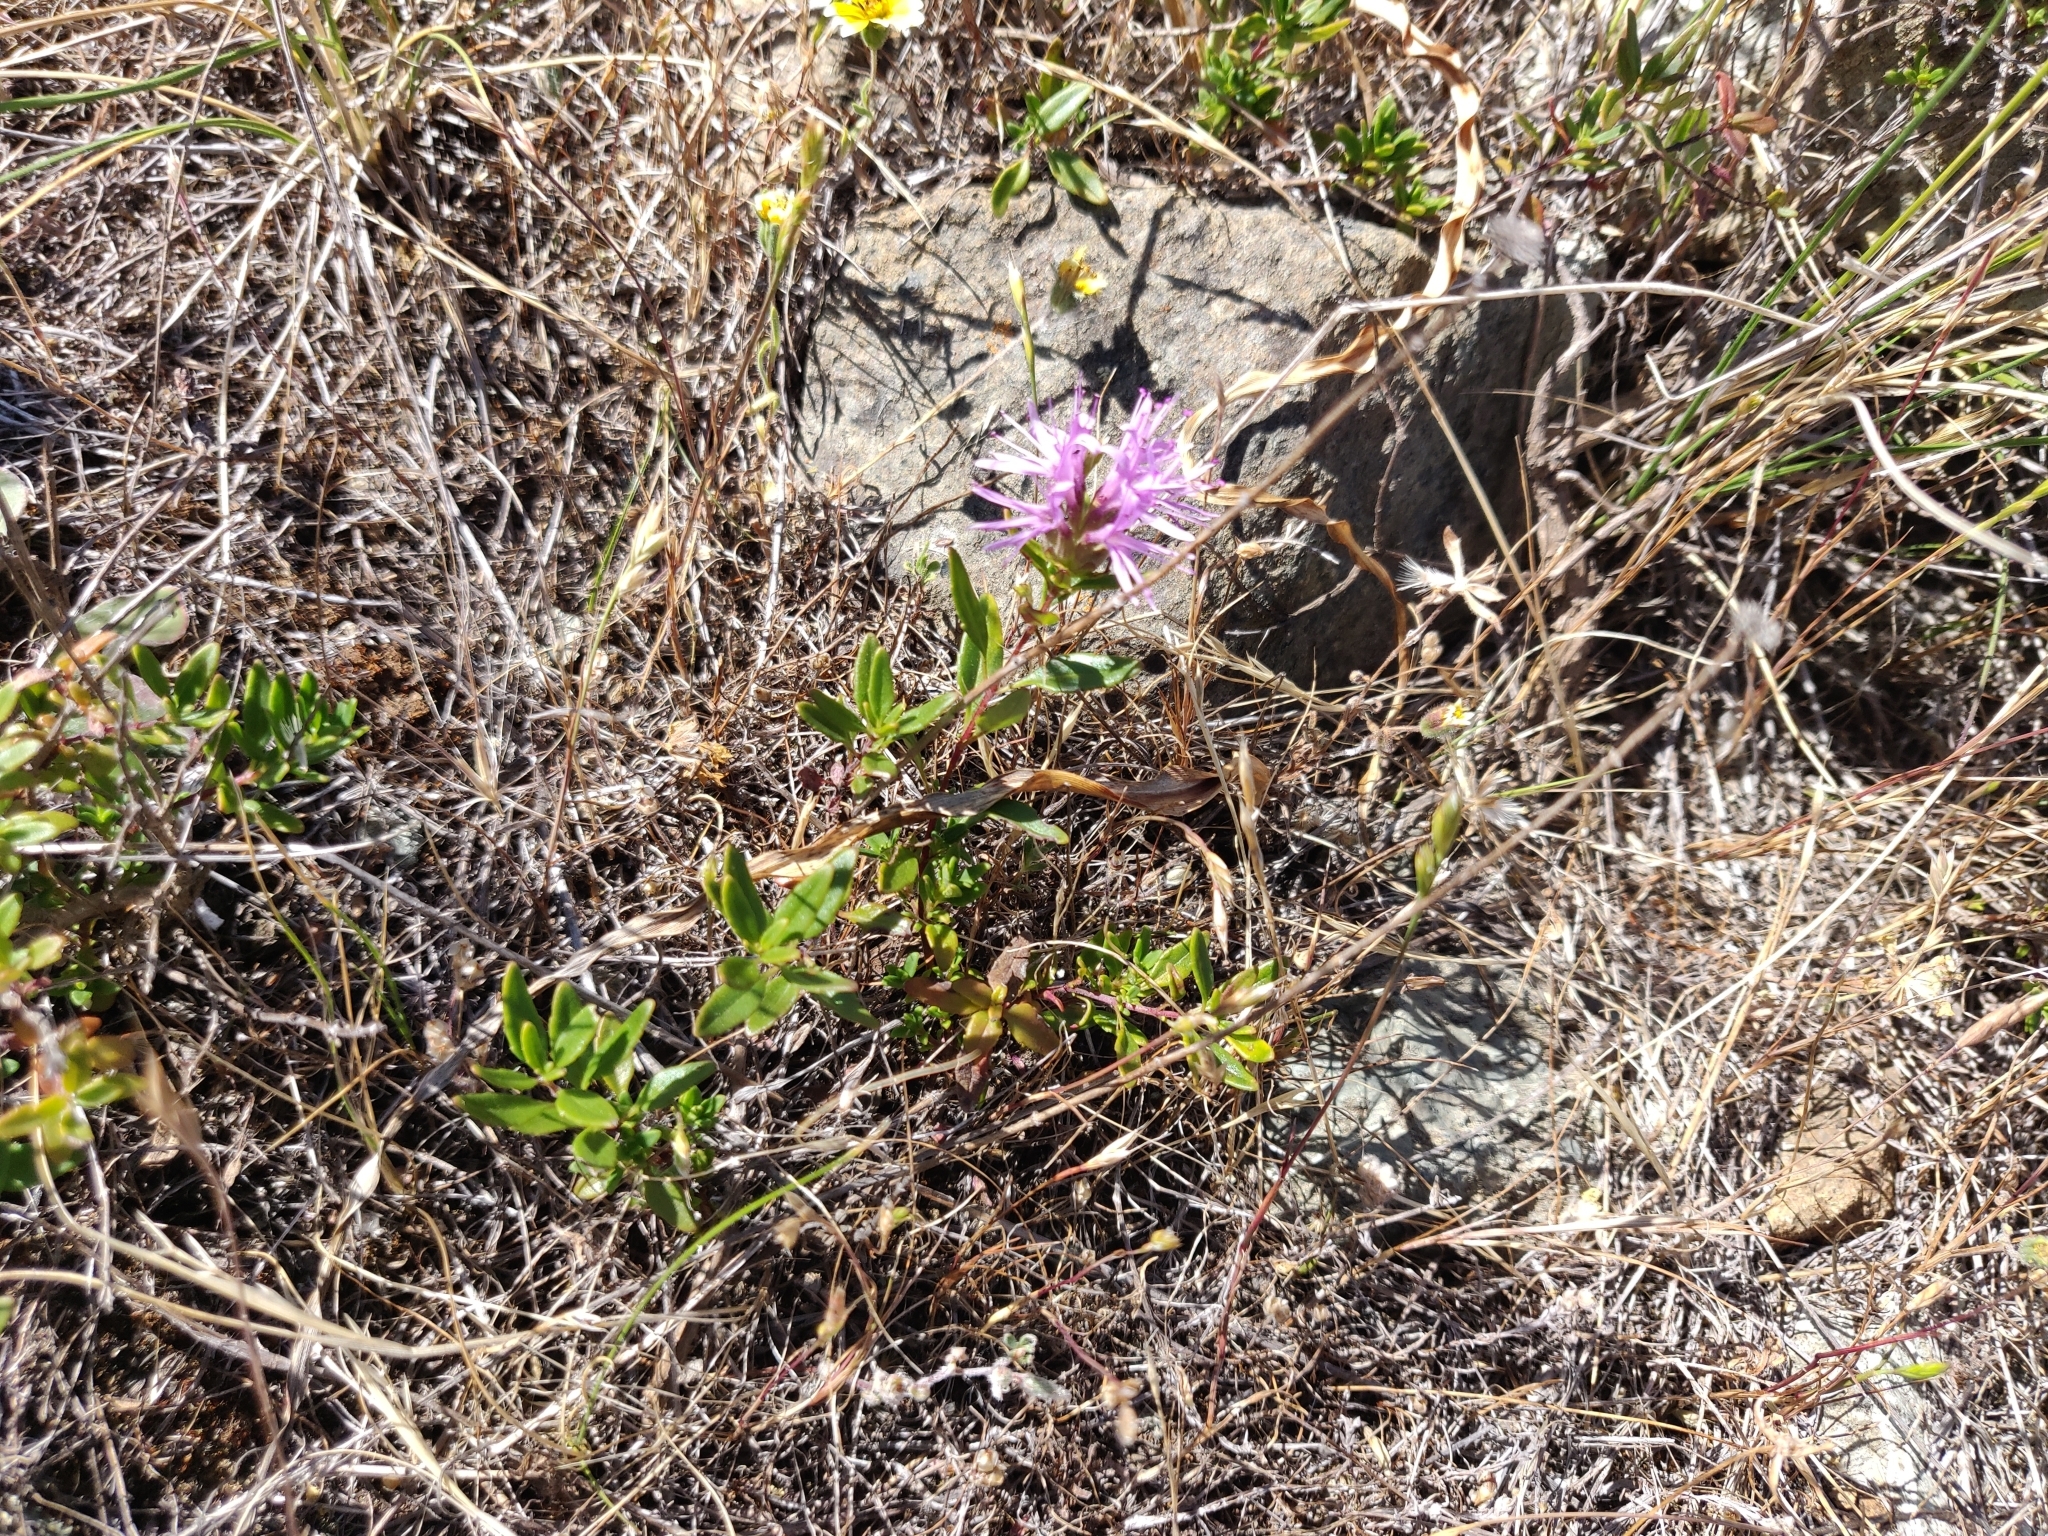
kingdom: Plantae
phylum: Tracheophyta
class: Magnoliopsida
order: Lamiales
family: Lamiaceae
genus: Monardella
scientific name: Monardella purpurea
